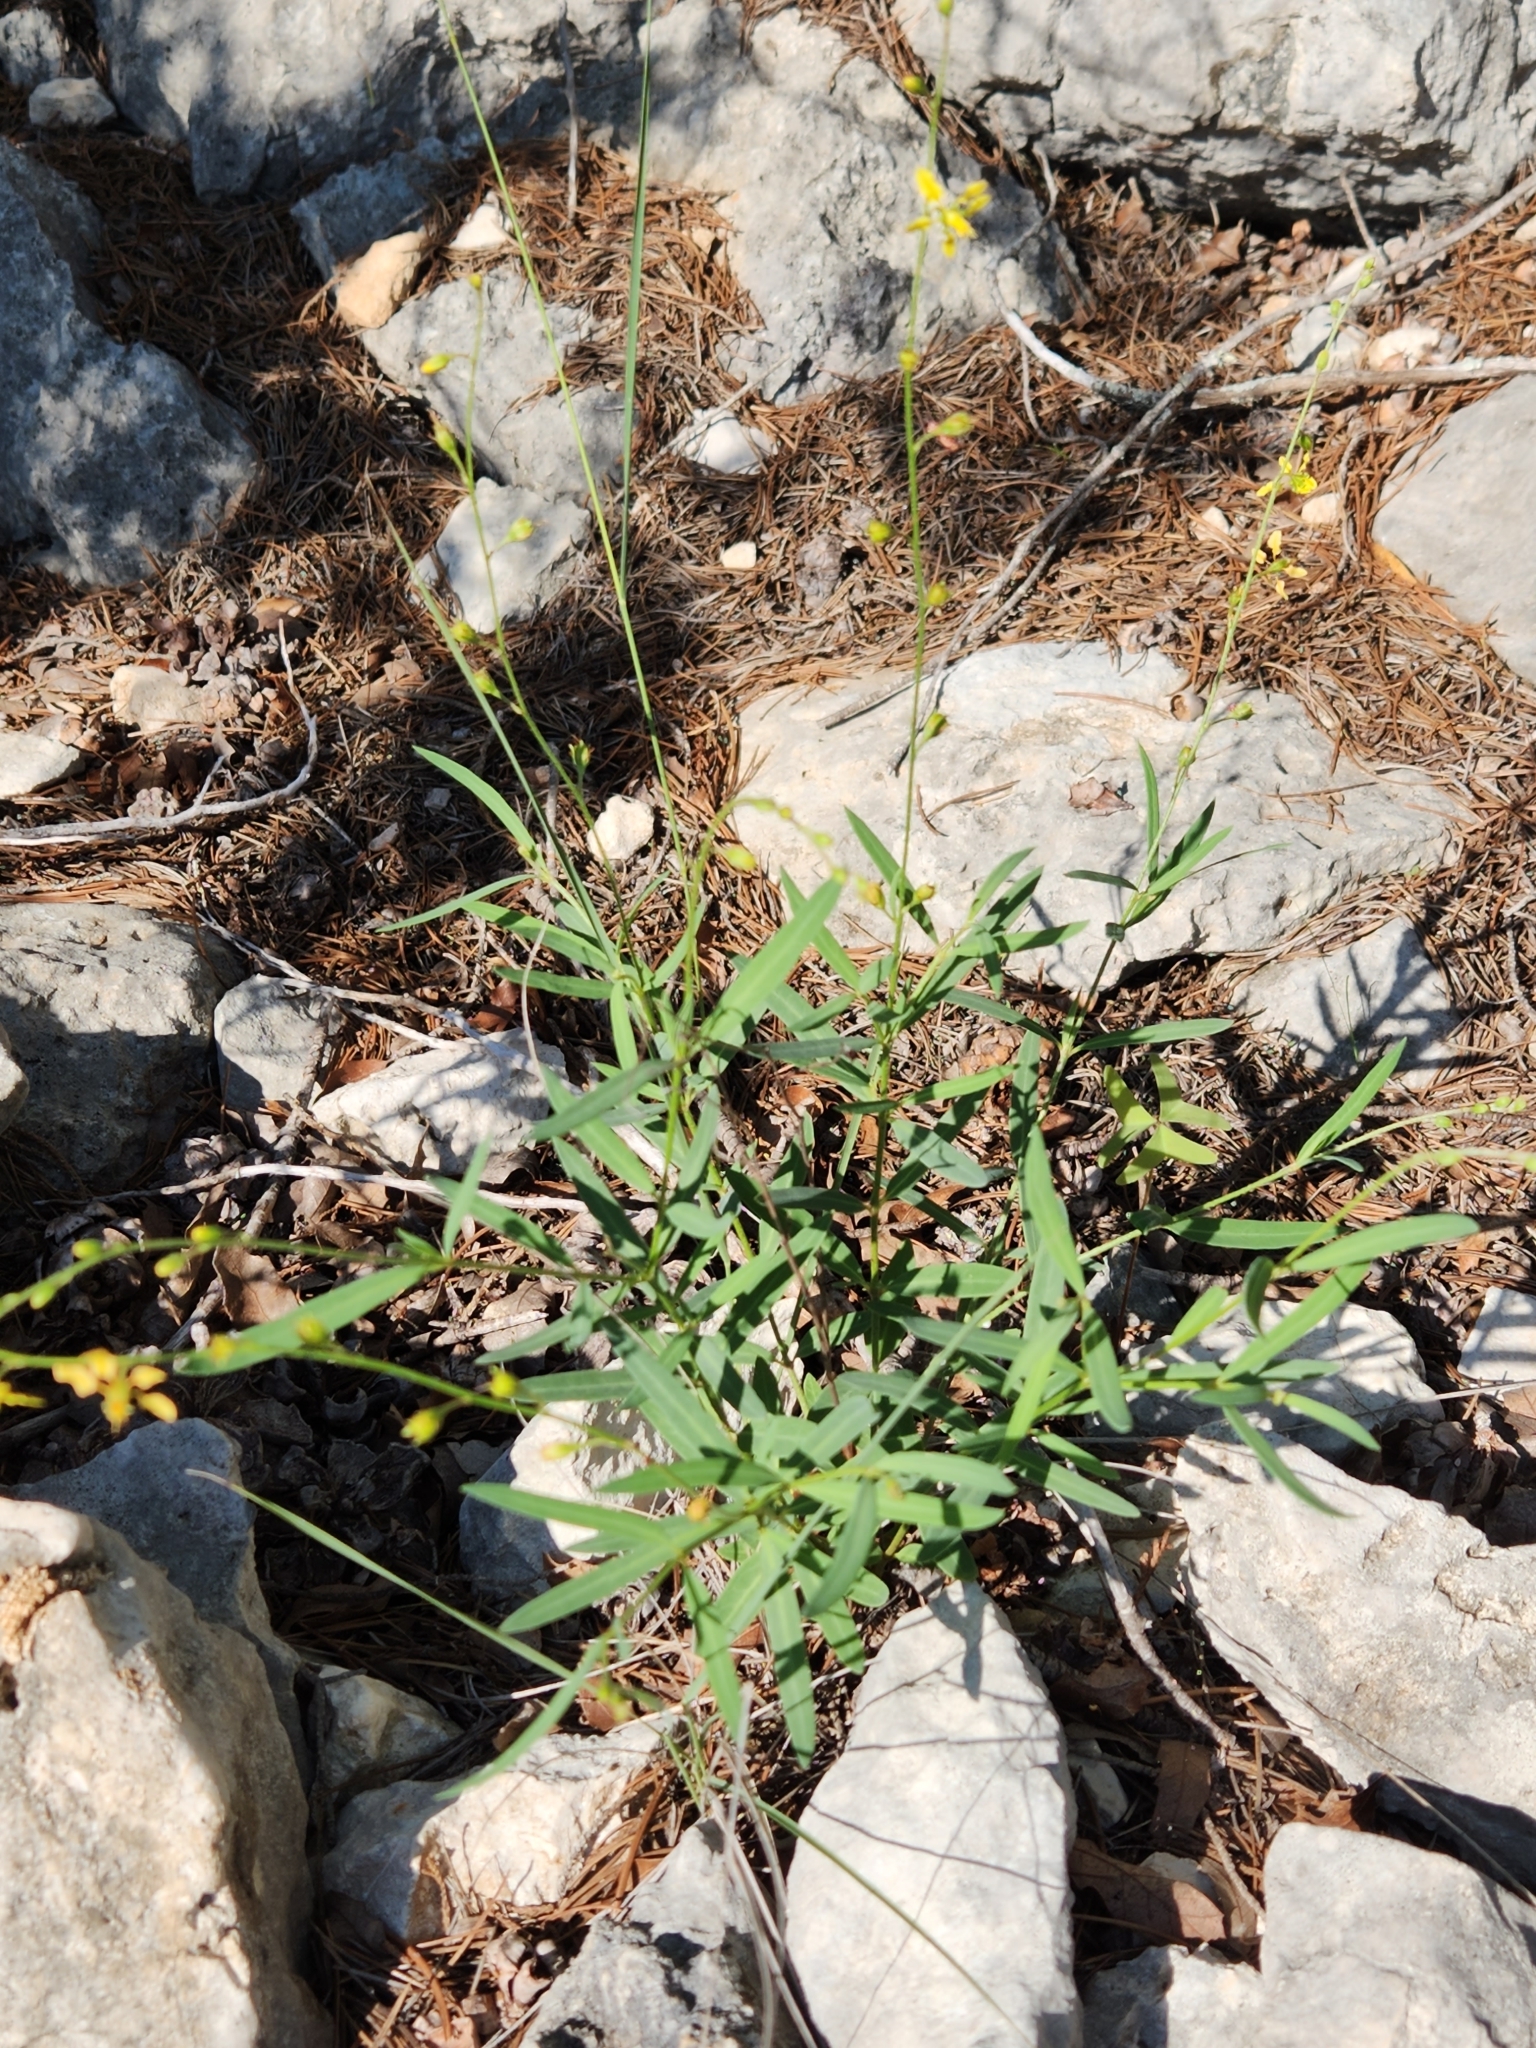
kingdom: Plantae
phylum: Tracheophyta
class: Magnoliopsida
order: Malpighiales
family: Malpighiaceae
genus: Galphimia
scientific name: Galphimia angustifolia
